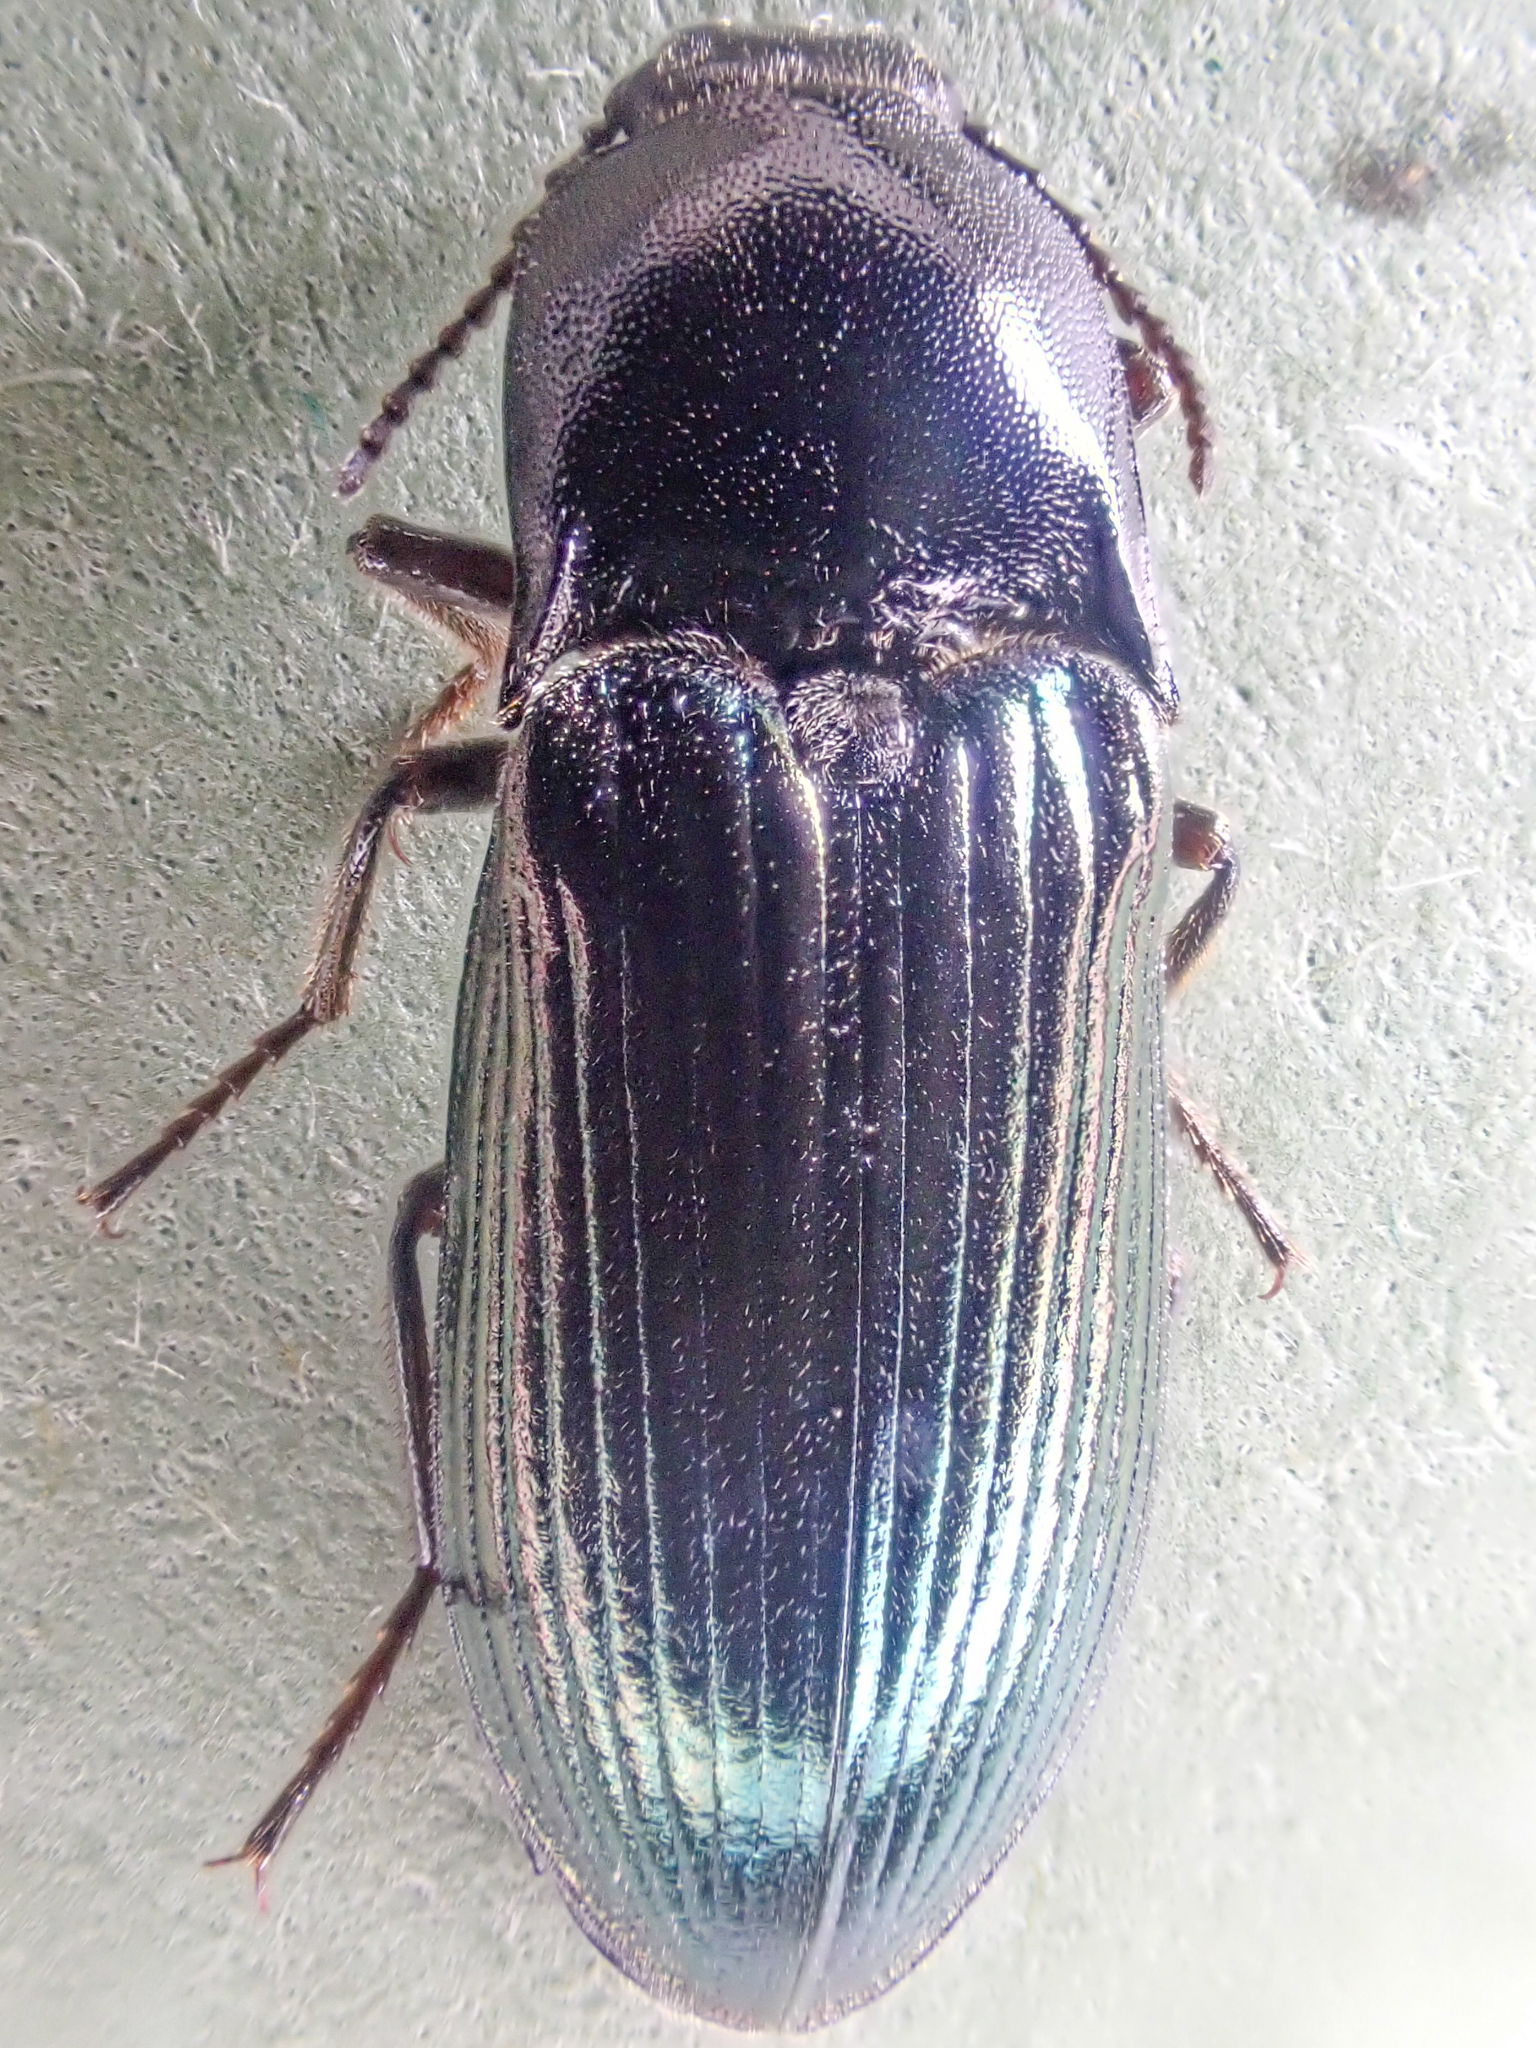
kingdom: Animalia
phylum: Arthropoda
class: Insecta
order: Coleoptera
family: Elateridae
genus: Selatosomus
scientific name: Selatosomus montanus
